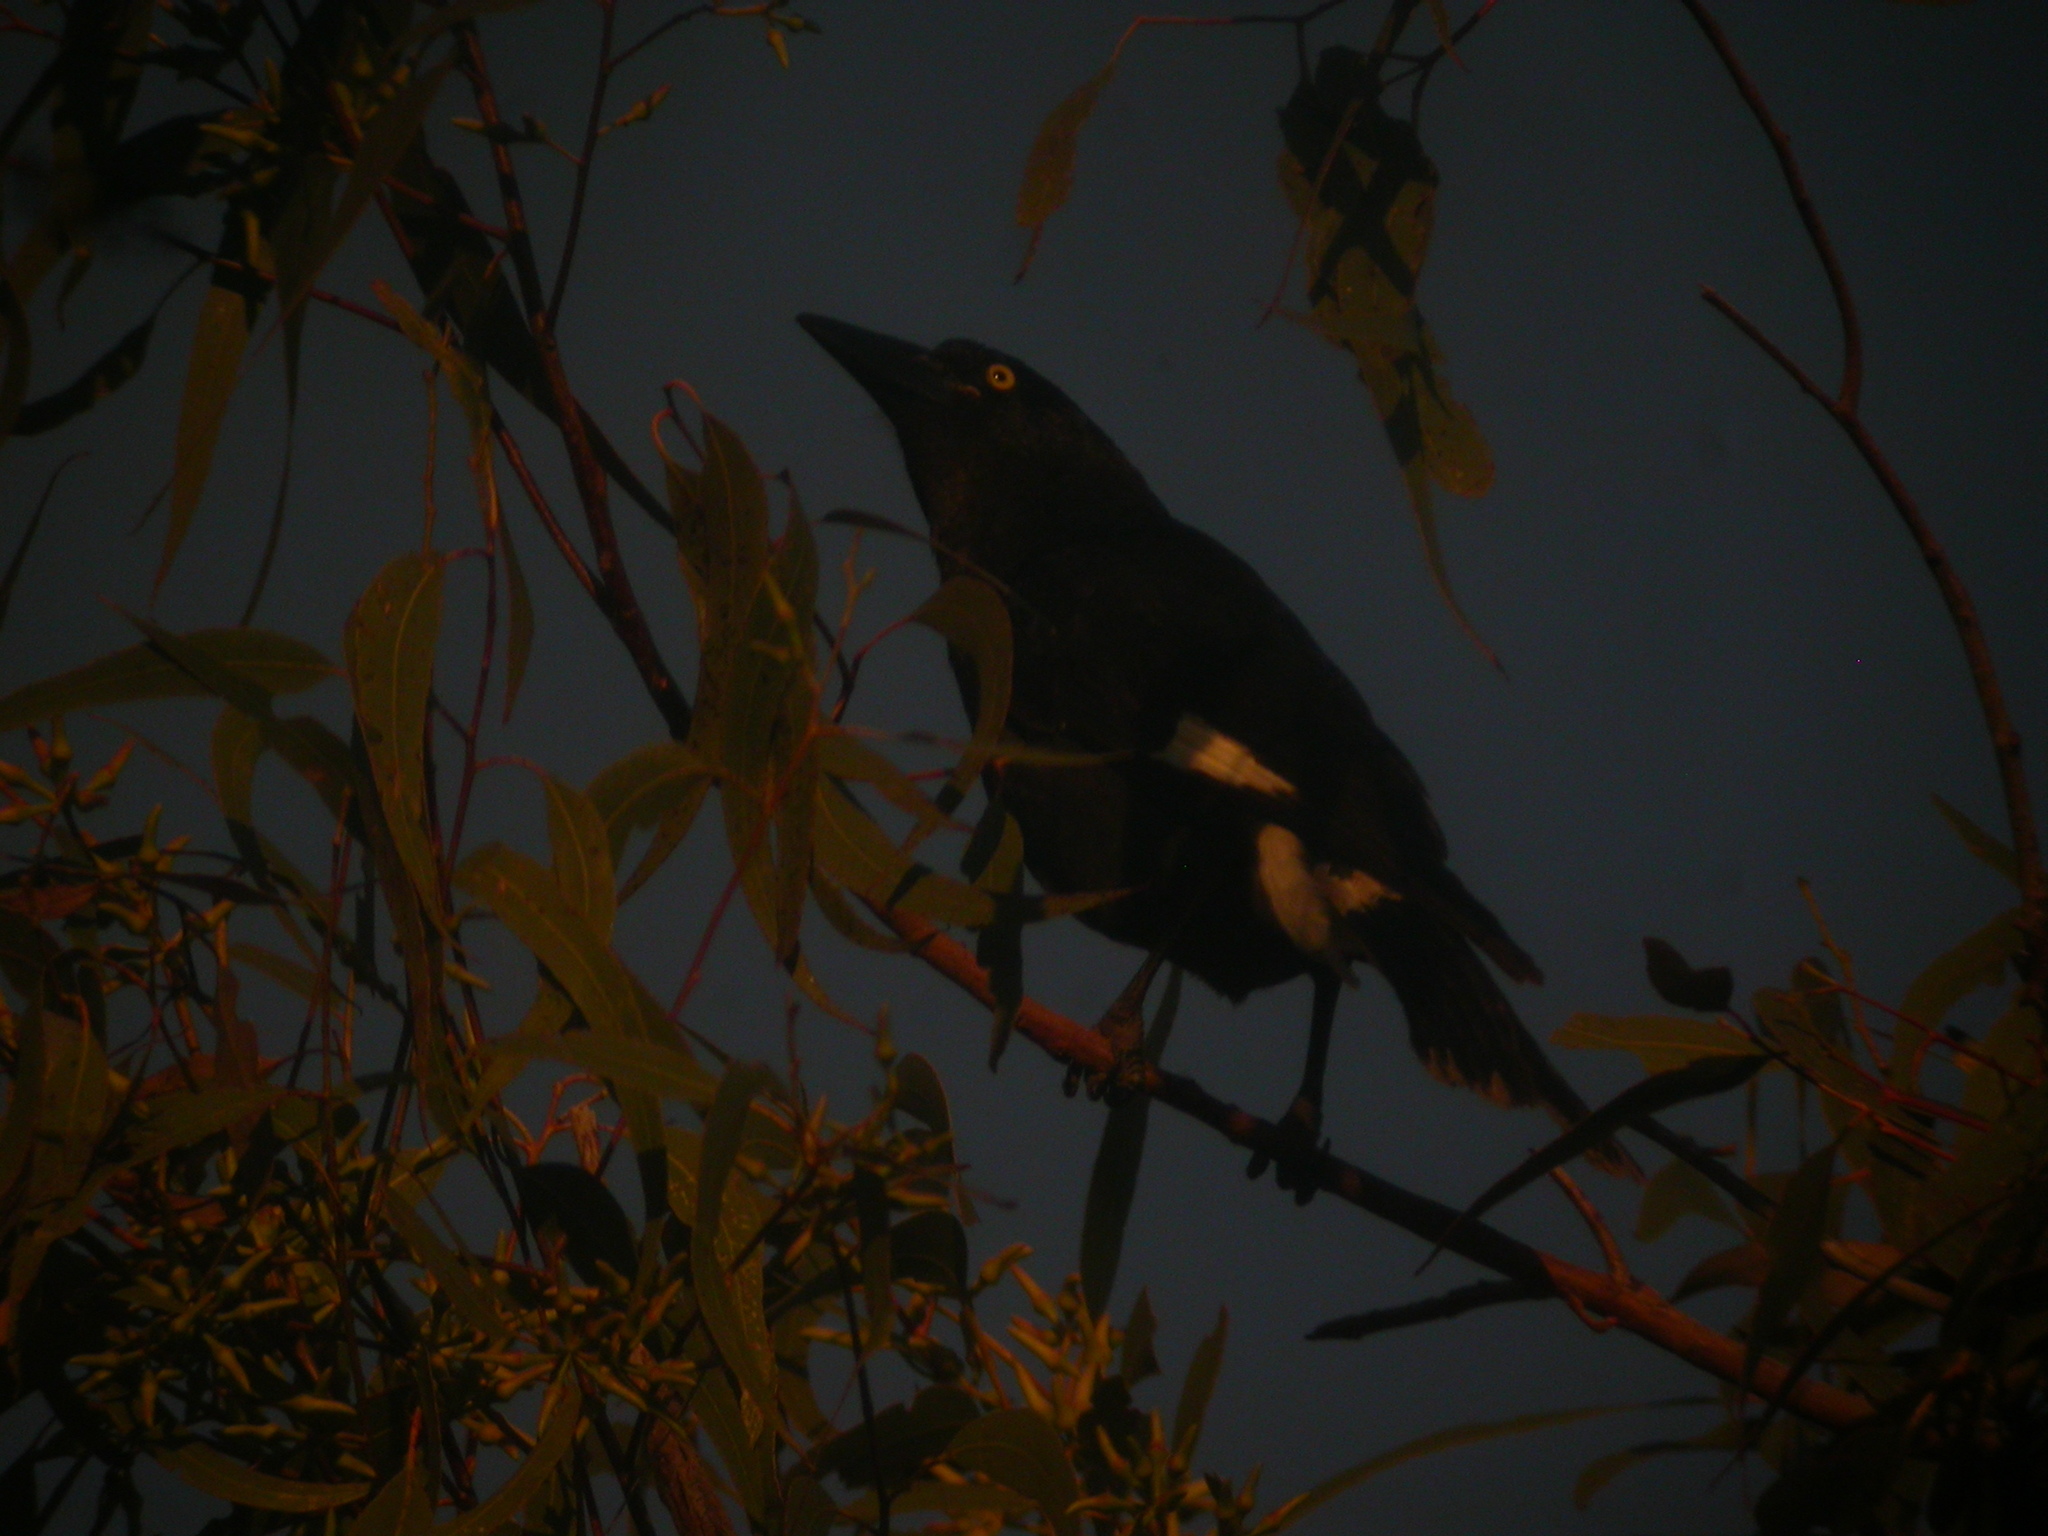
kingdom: Animalia
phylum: Chordata
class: Aves
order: Passeriformes
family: Cracticidae
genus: Strepera
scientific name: Strepera graculina
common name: Pied currawong
